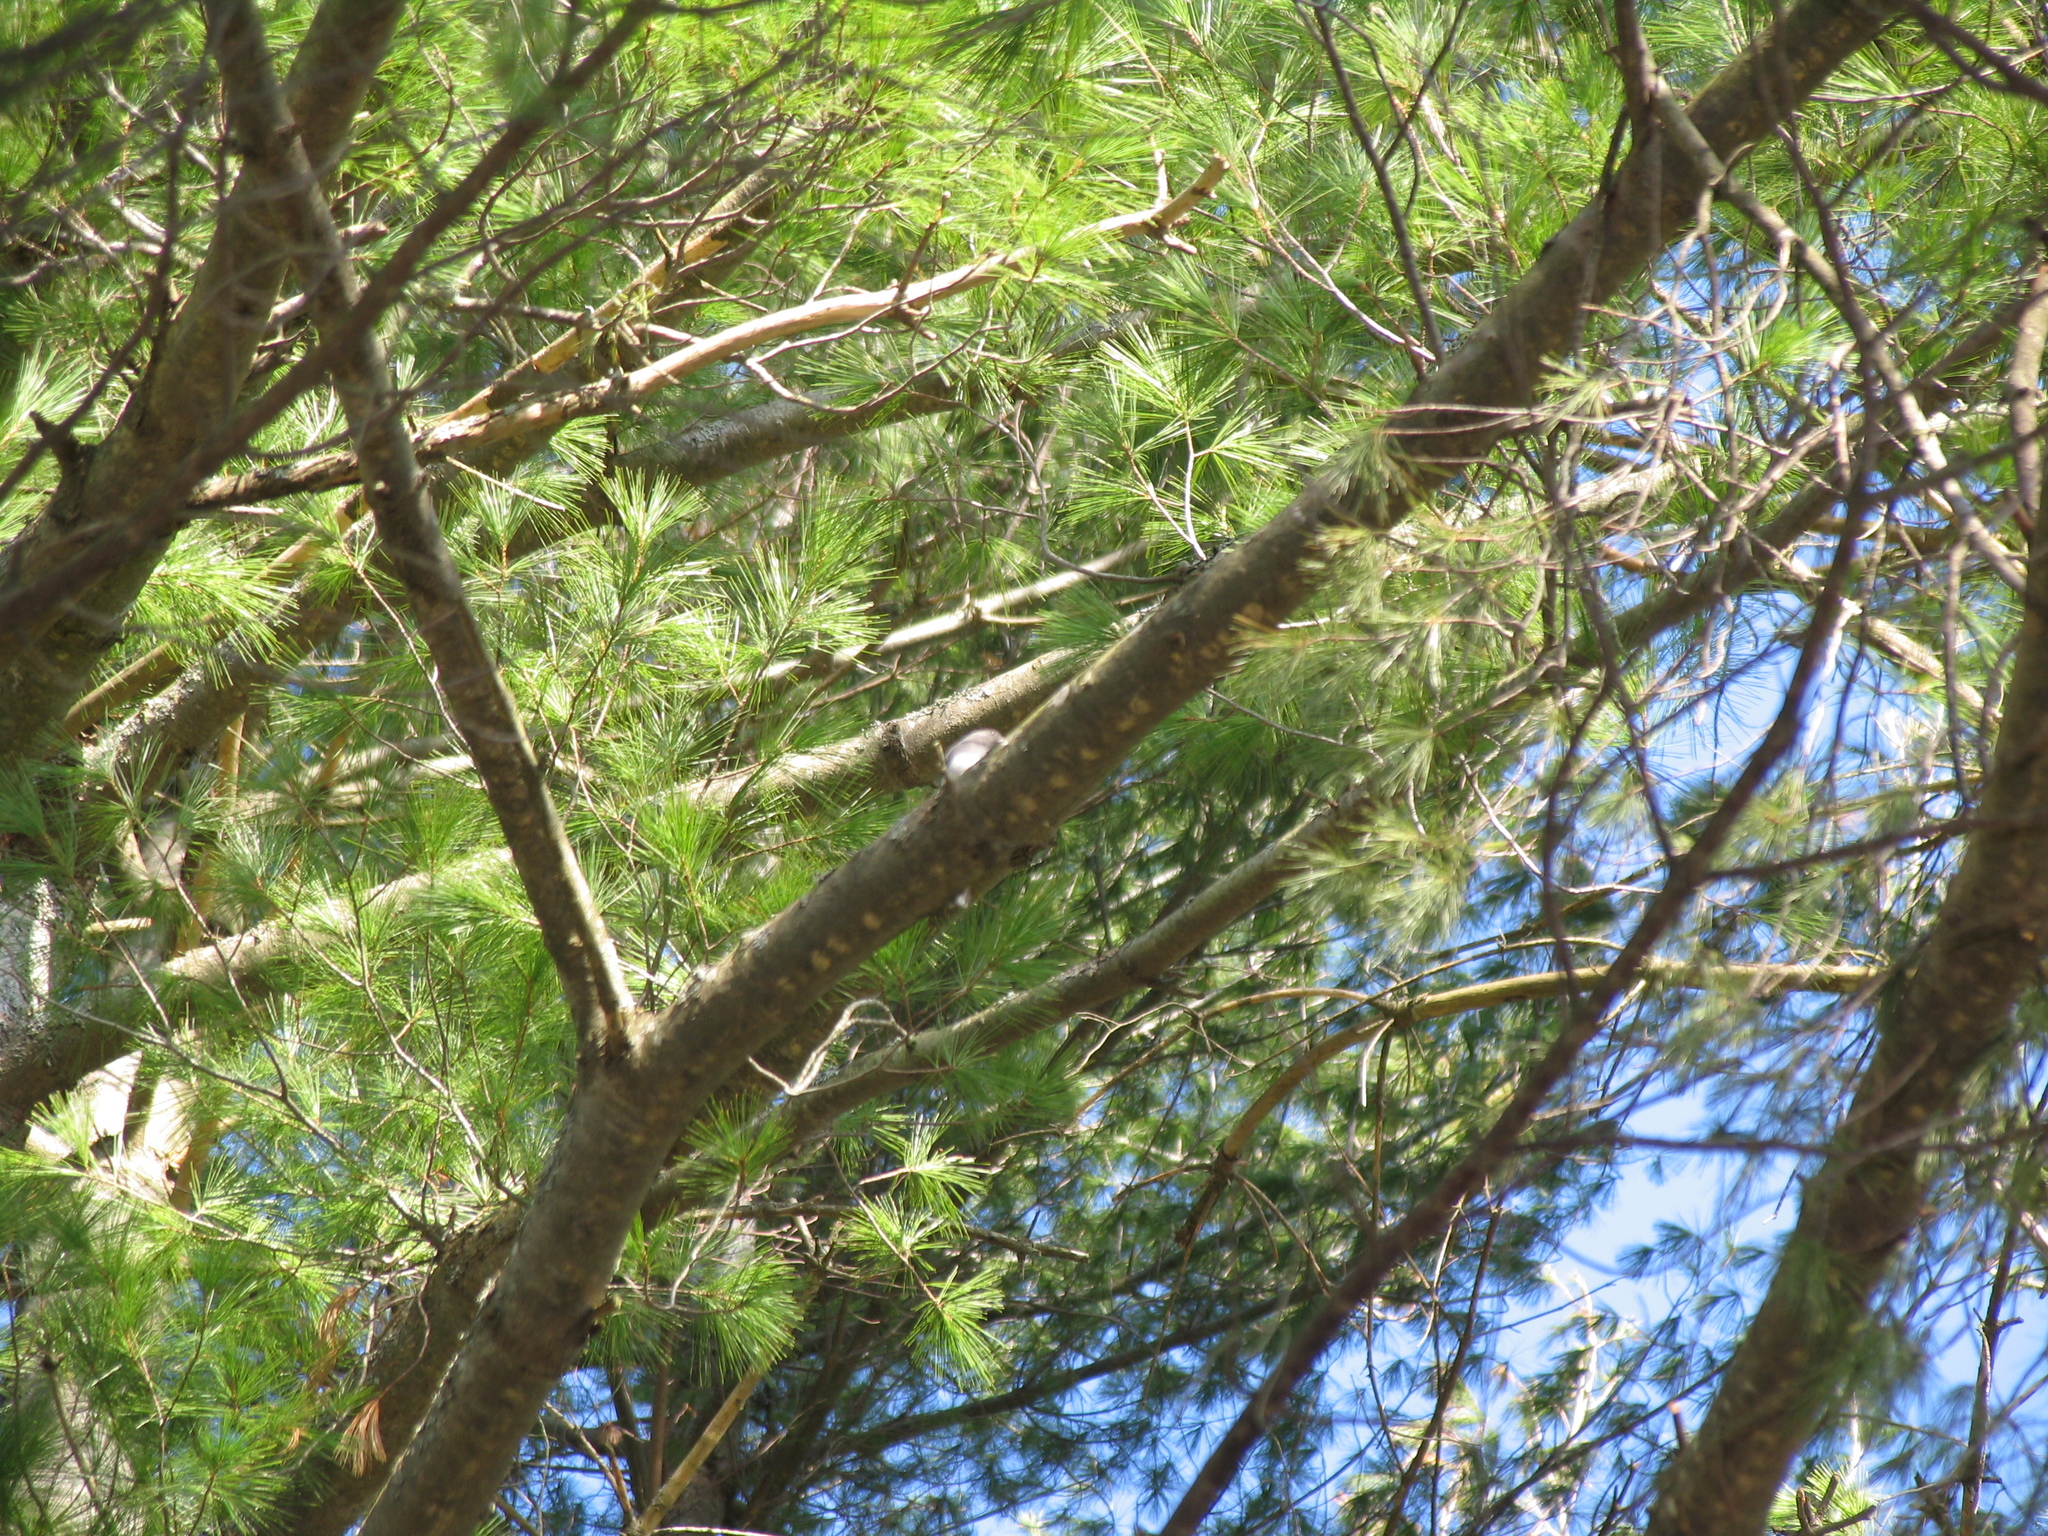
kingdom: Plantae
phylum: Tracheophyta
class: Pinopsida
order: Pinales
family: Pinaceae
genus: Pinus
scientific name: Pinus strobus
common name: Weymouth pine
